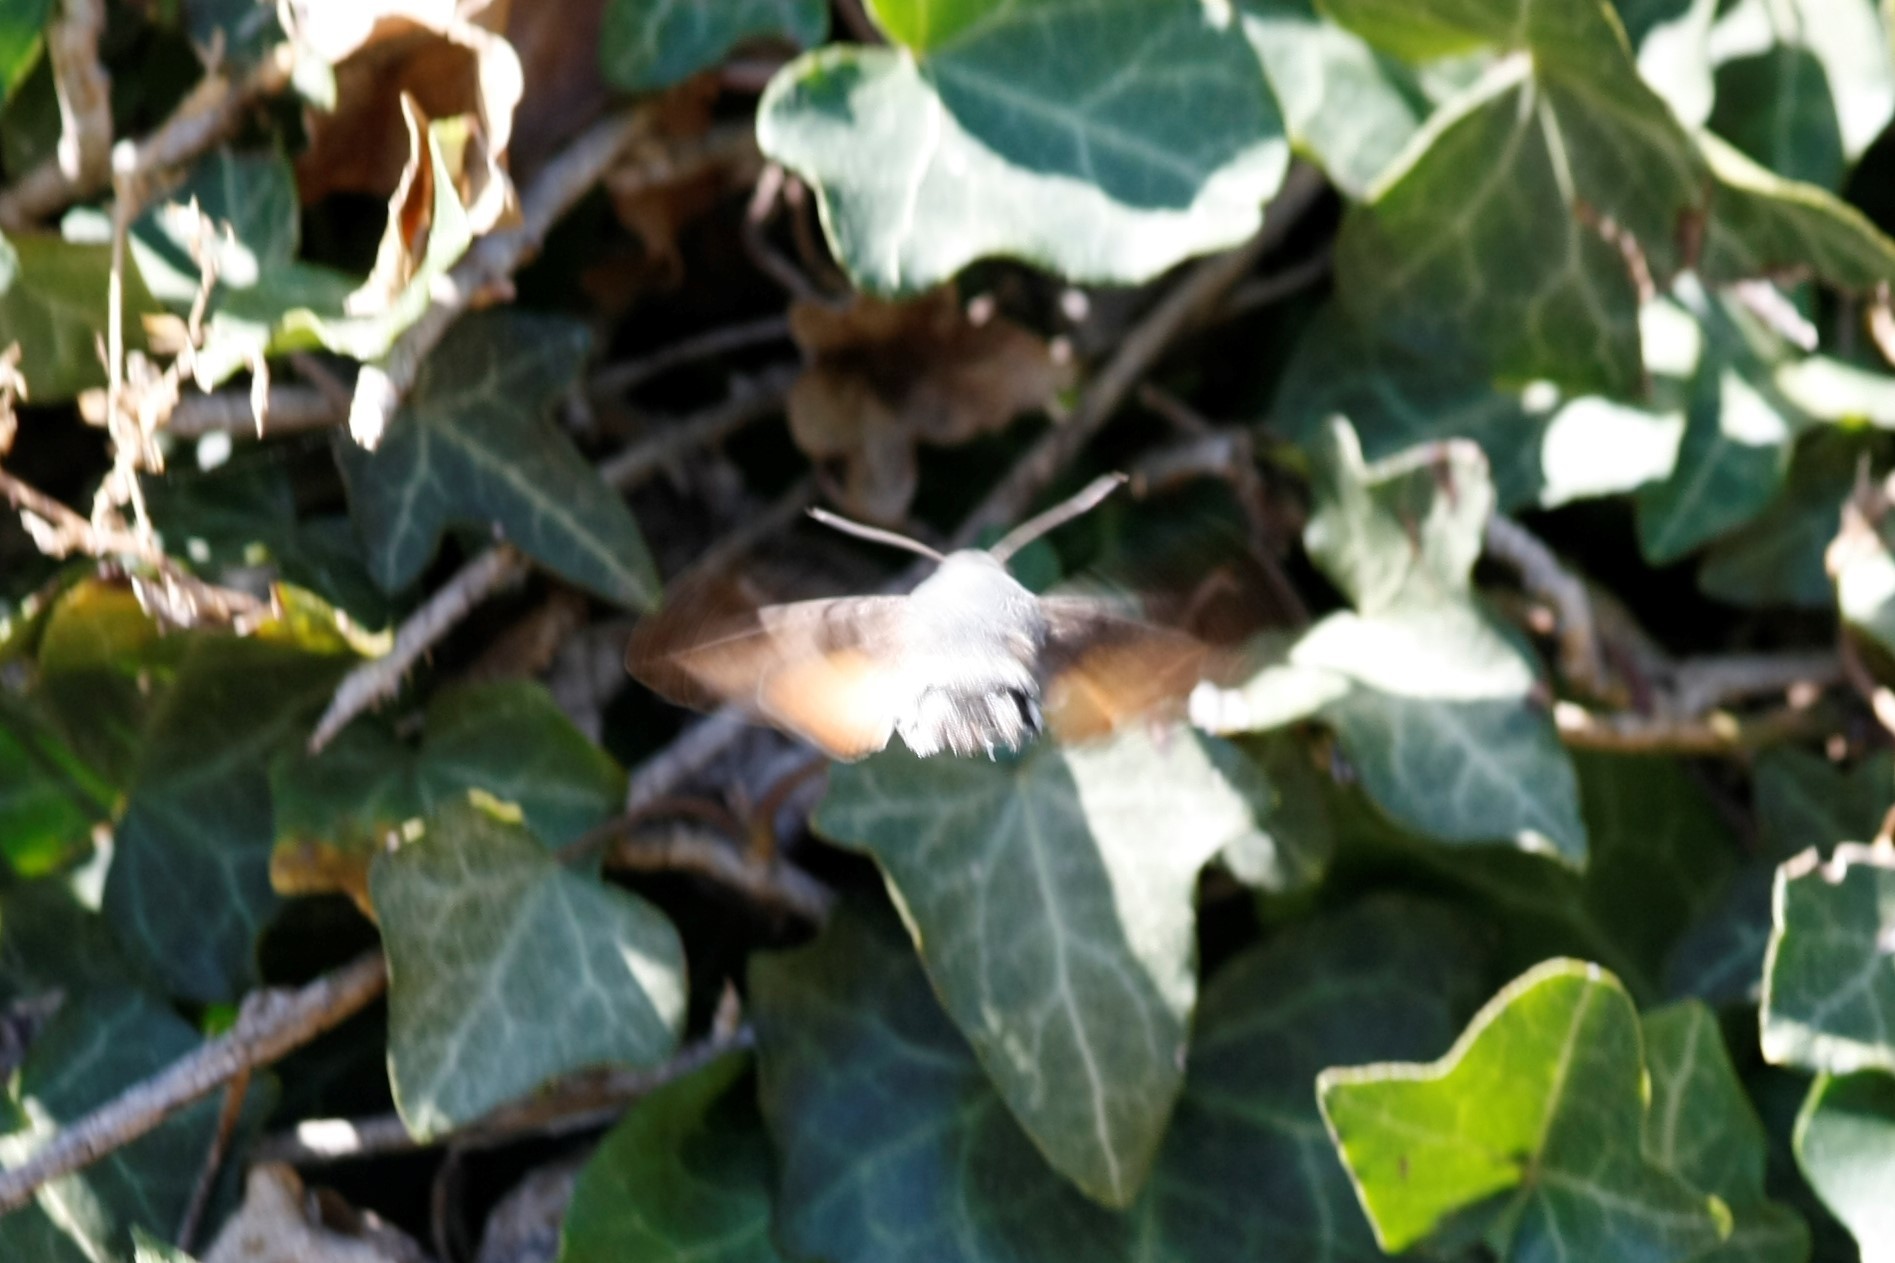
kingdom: Animalia
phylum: Arthropoda
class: Insecta
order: Lepidoptera
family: Sphingidae
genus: Macroglossum
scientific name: Macroglossum stellatarum
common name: Humming-bird hawk-moth
